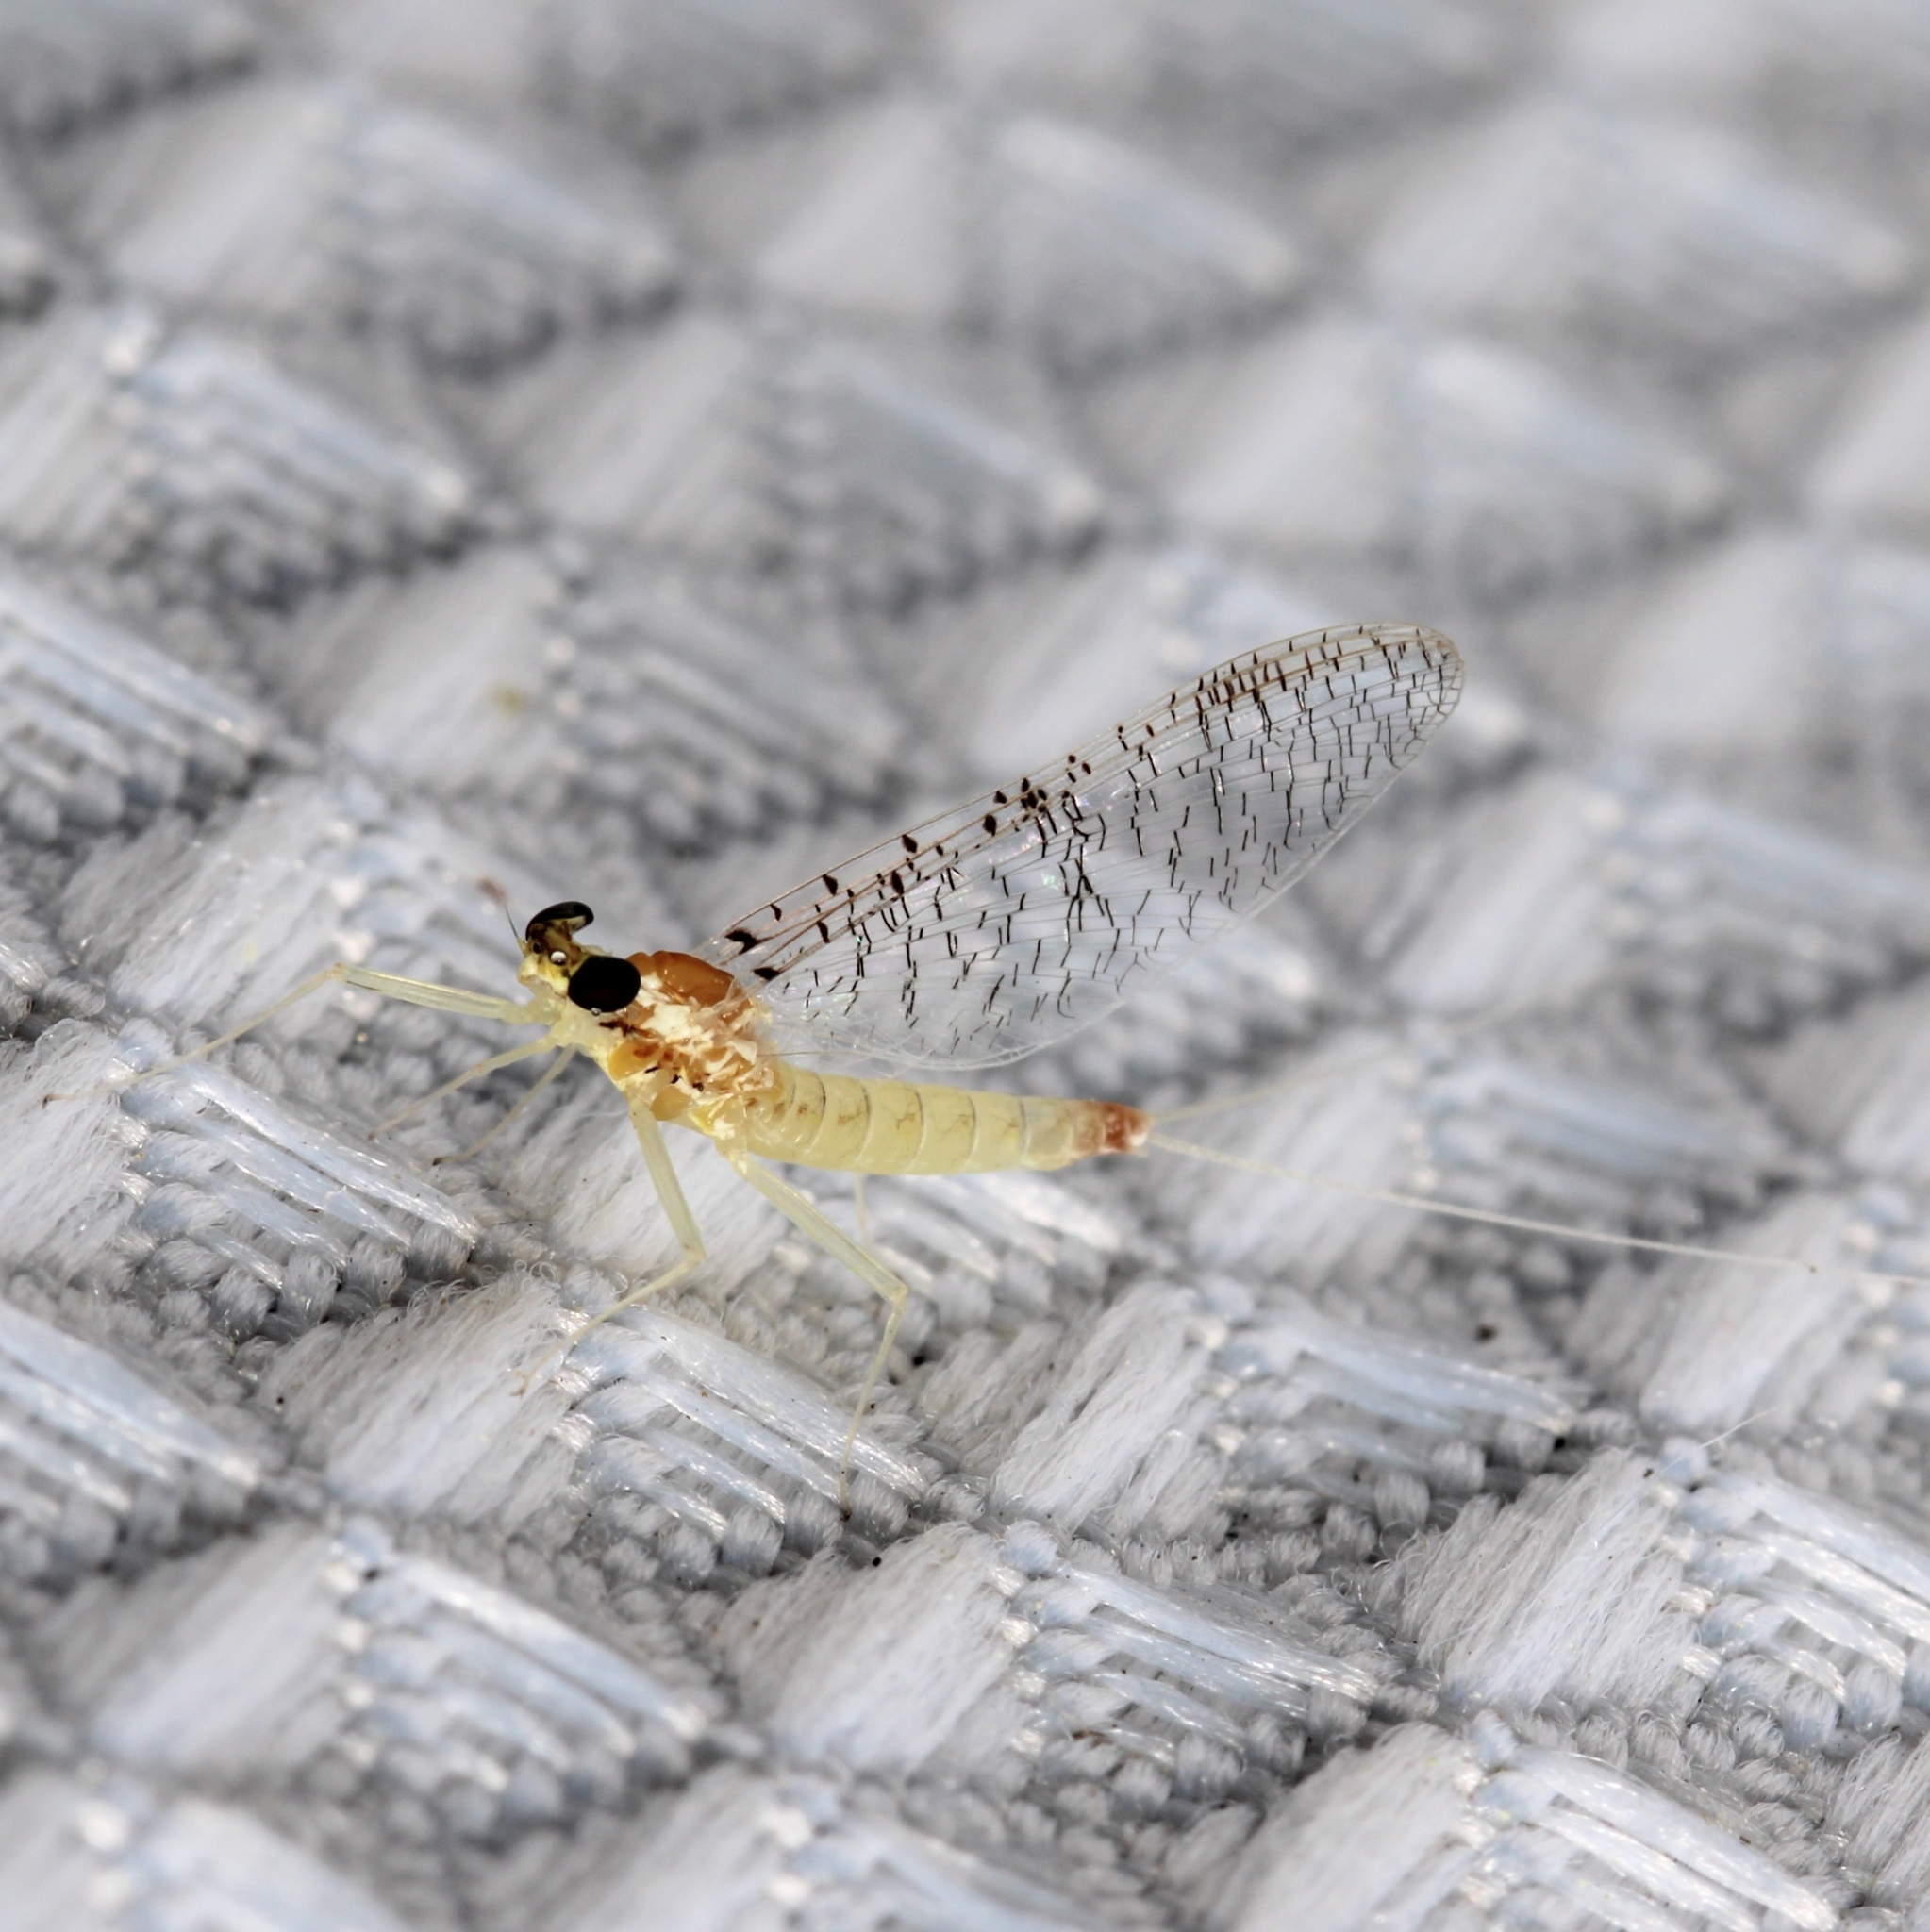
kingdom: Animalia
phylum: Arthropoda
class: Insecta
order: Ephemeroptera
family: Heptageniidae
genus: Leucrocuta
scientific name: Leucrocuta hebe
